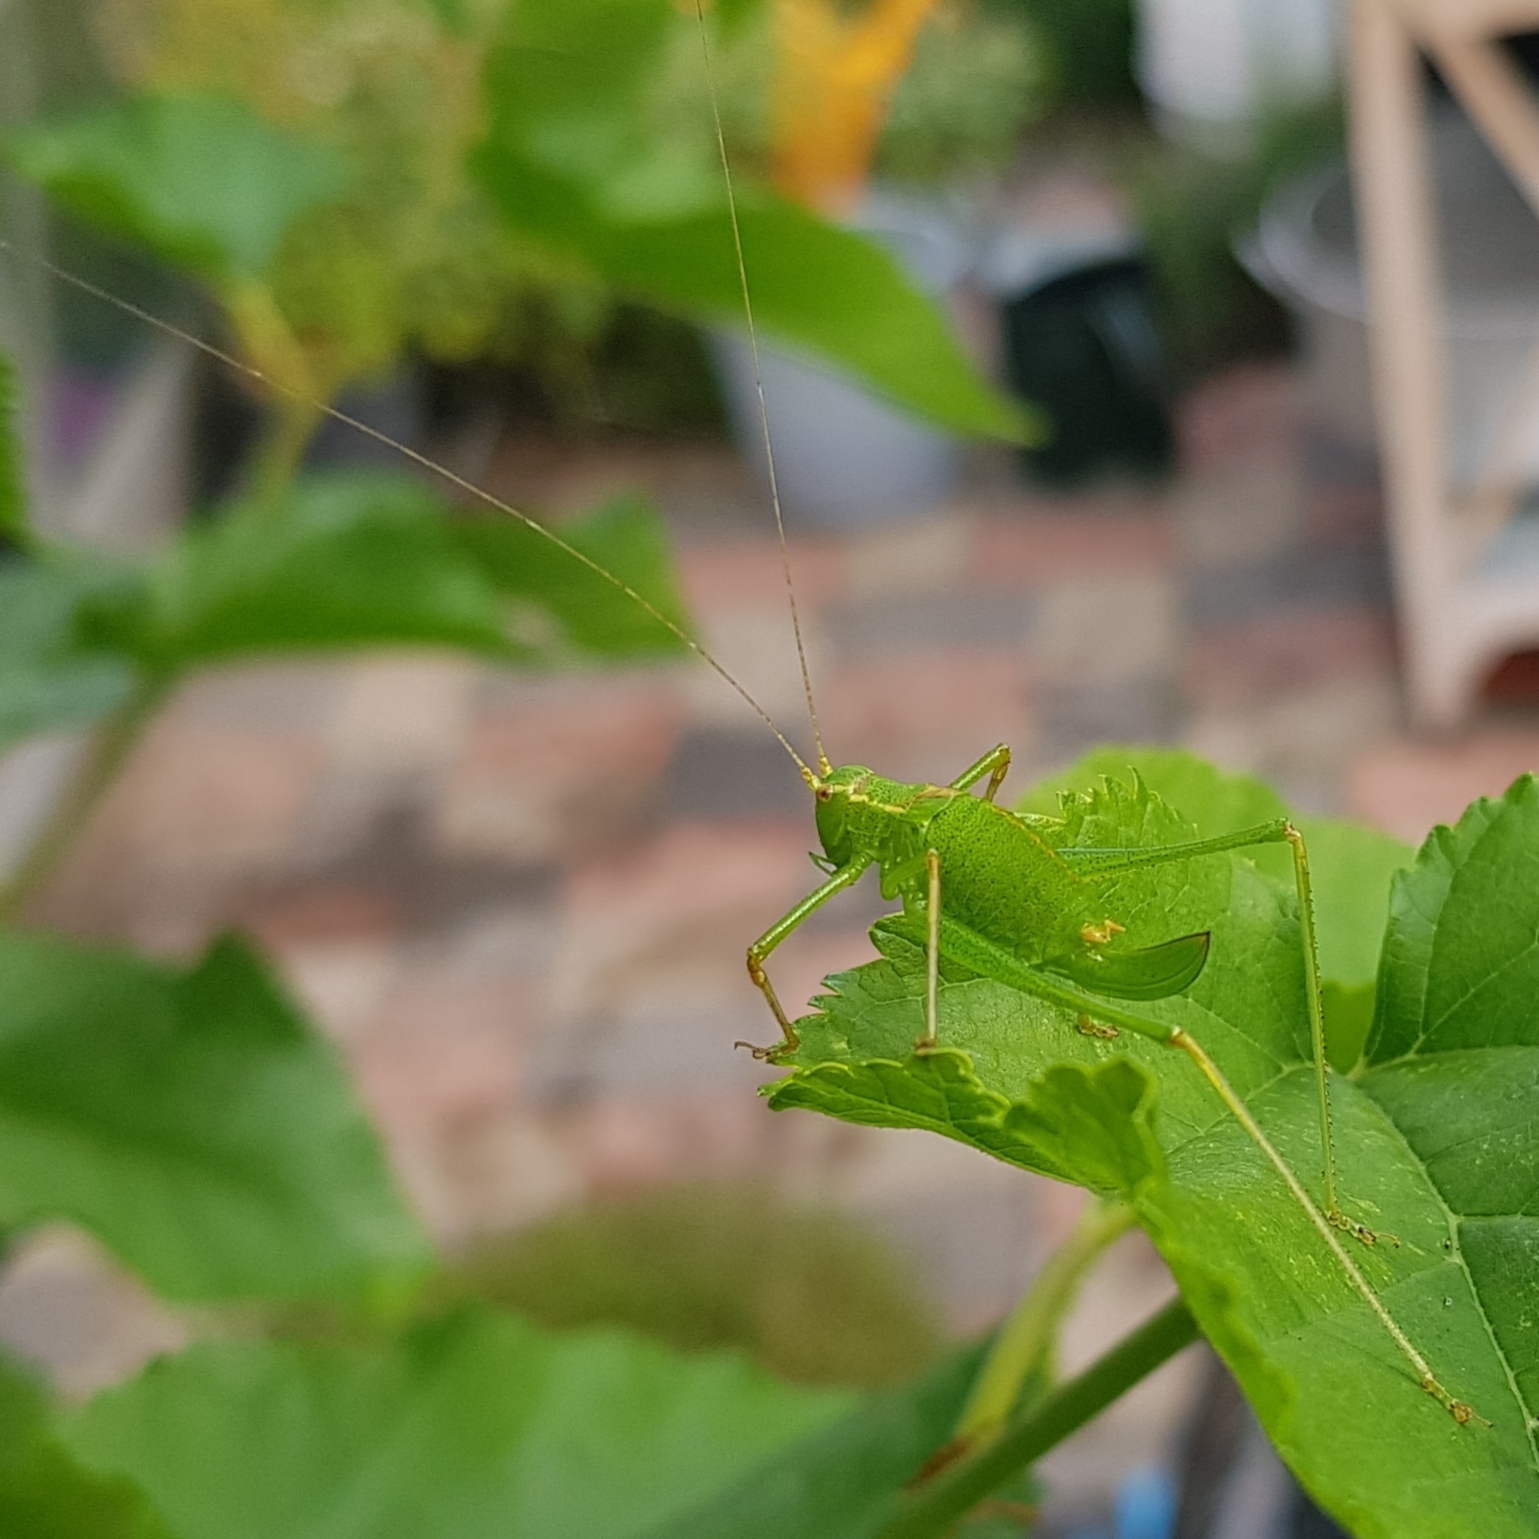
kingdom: Animalia
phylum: Arthropoda
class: Insecta
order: Orthoptera
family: Tettigoniidae
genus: Leptophyes
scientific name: Leptophyes punctatissima
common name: Speckled bush-cricket
